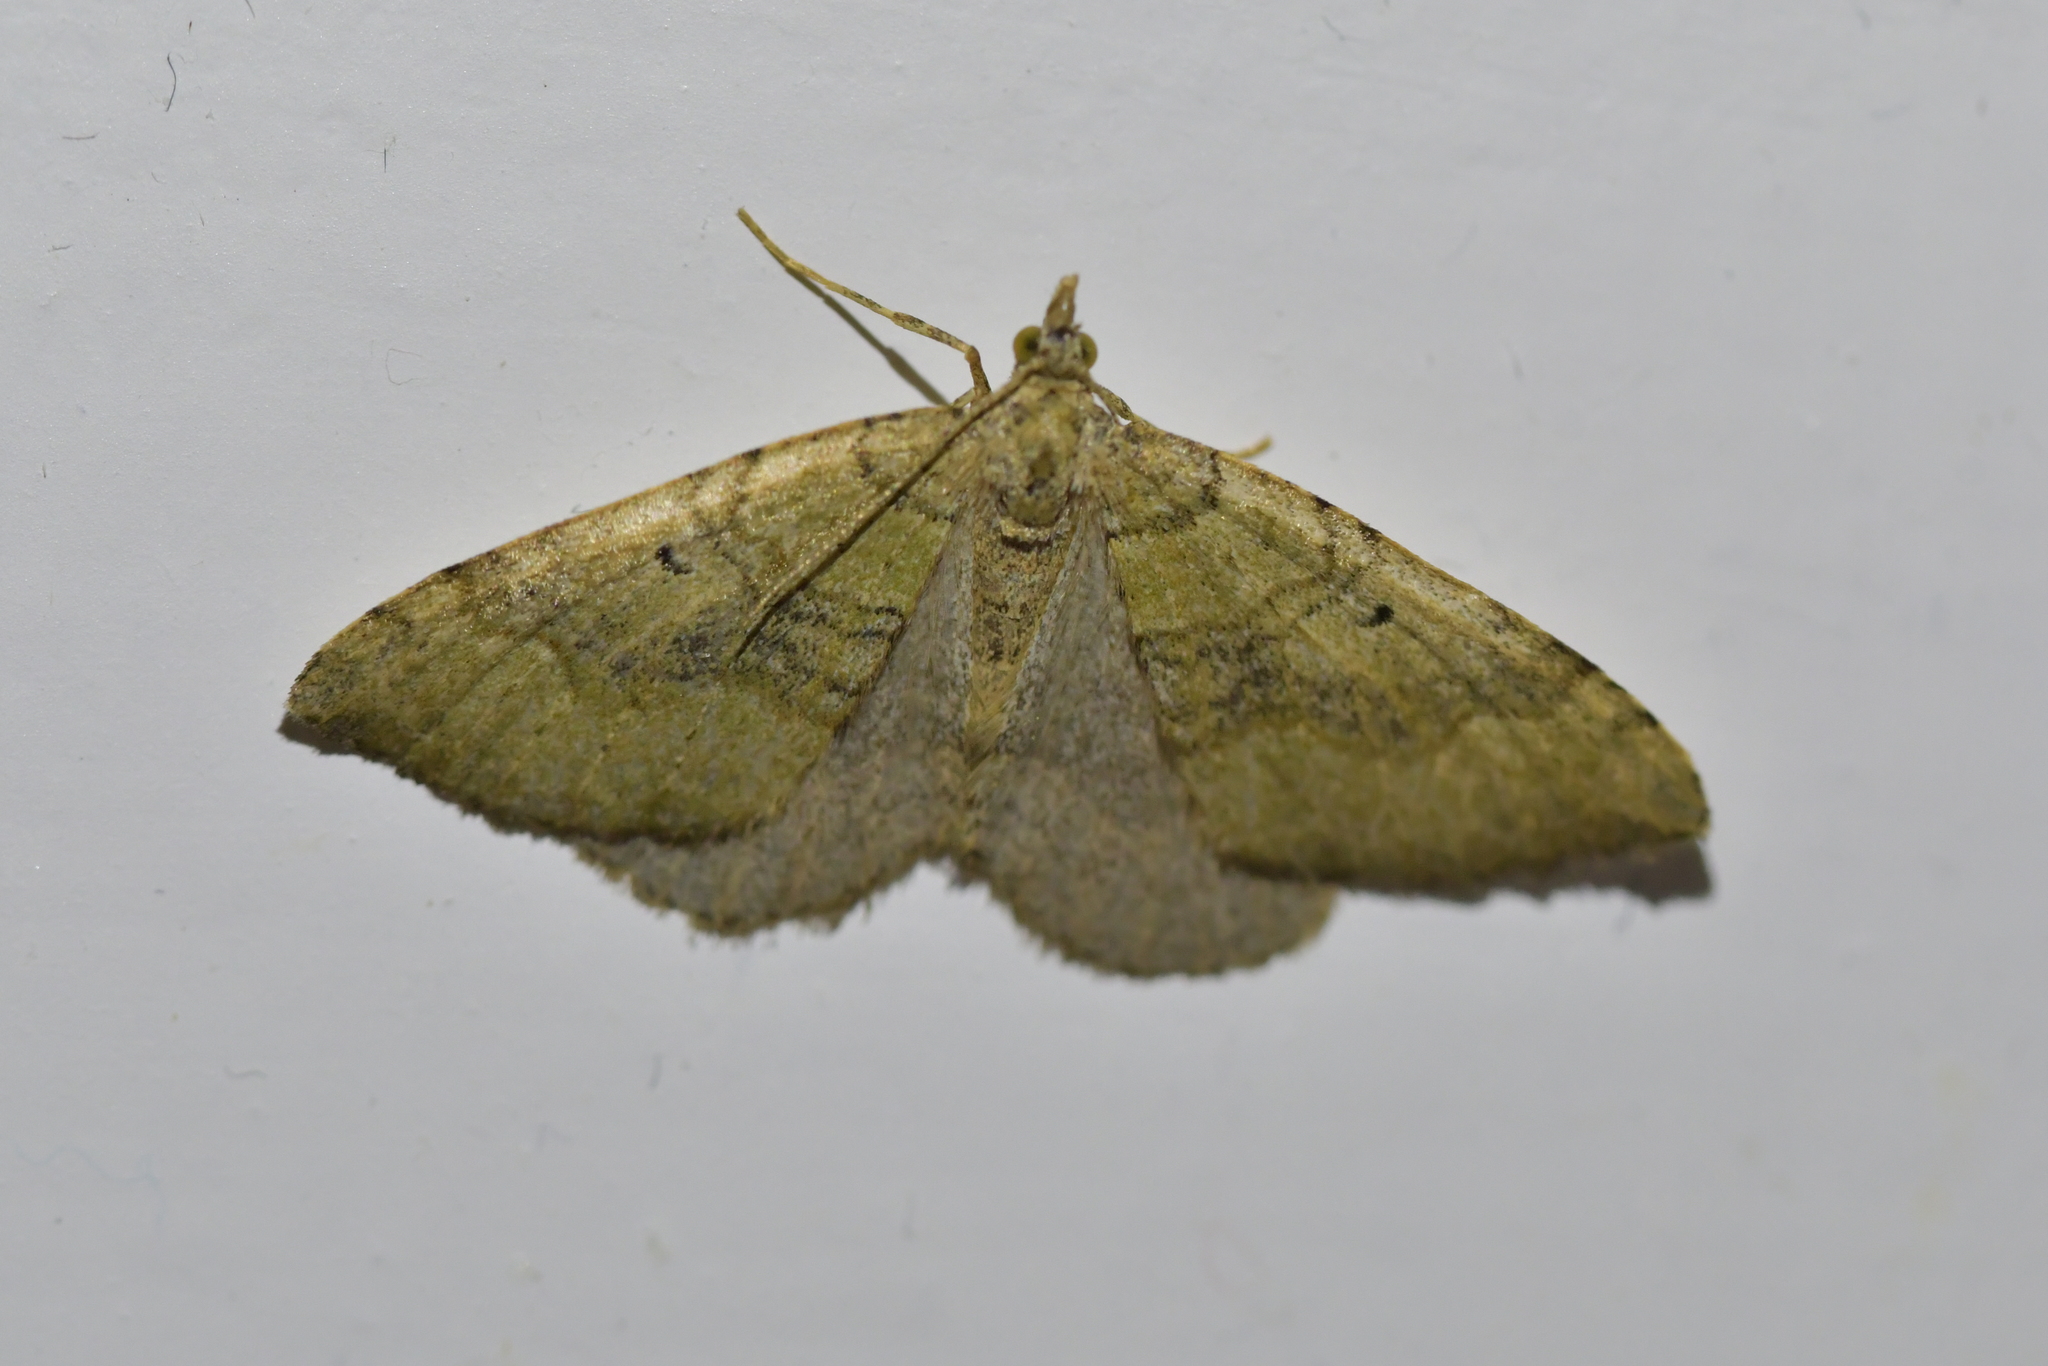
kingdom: Animalia
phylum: Arthropoda
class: Insecta
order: Lepidoptera
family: Geometridae
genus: Epyaxa
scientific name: Epyaxa rosearia
